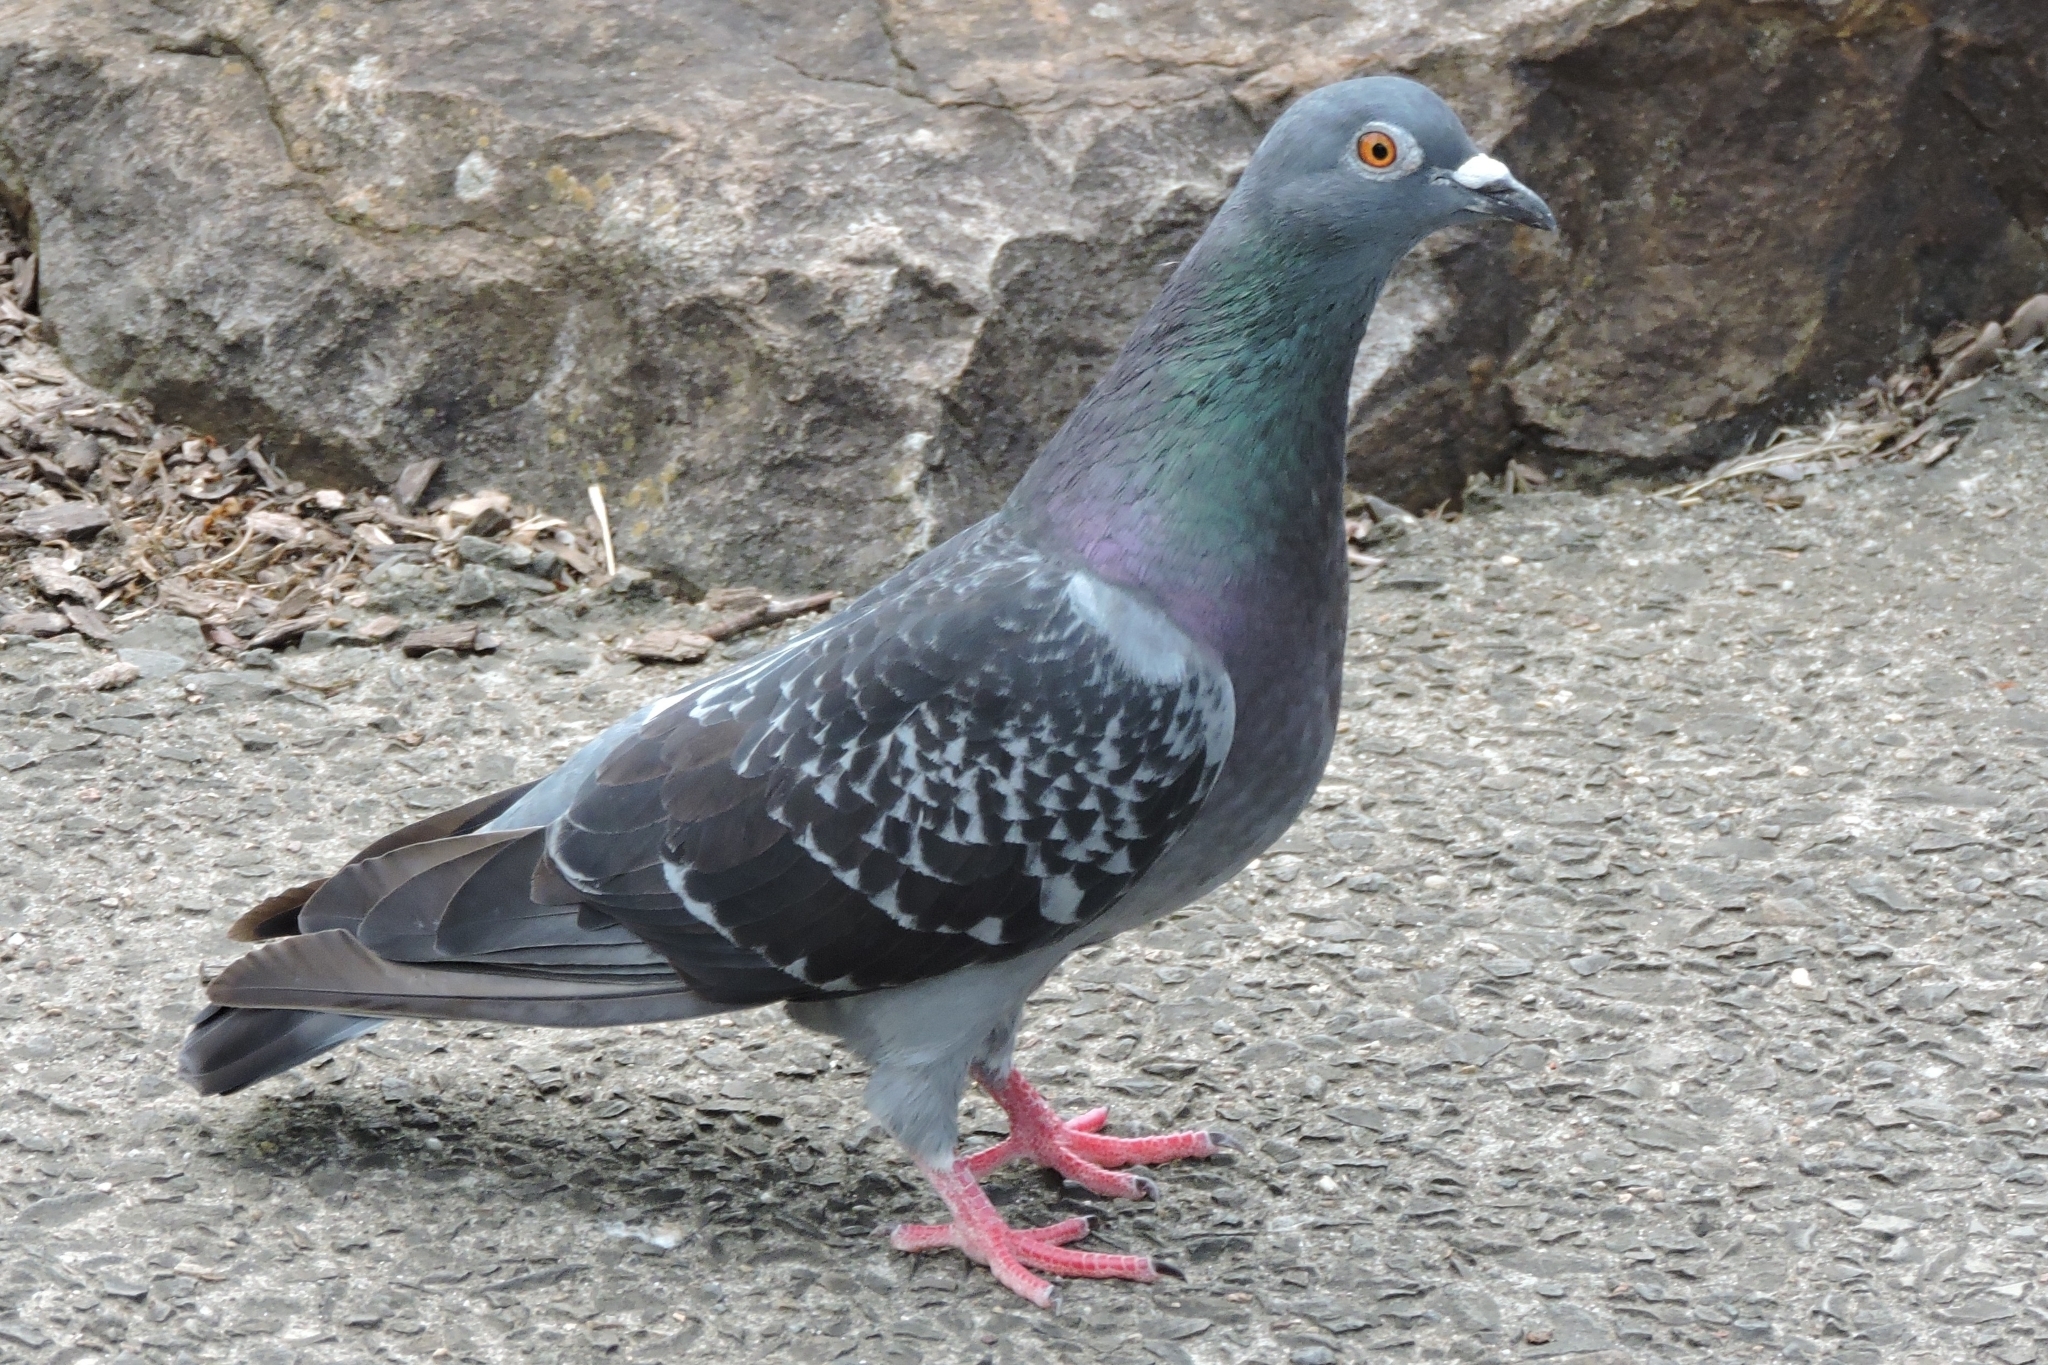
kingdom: Animalia
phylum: Chordata
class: Aves
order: Columbiformes
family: Columbidae
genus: Columba
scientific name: Columba livia
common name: Rock pigeon
